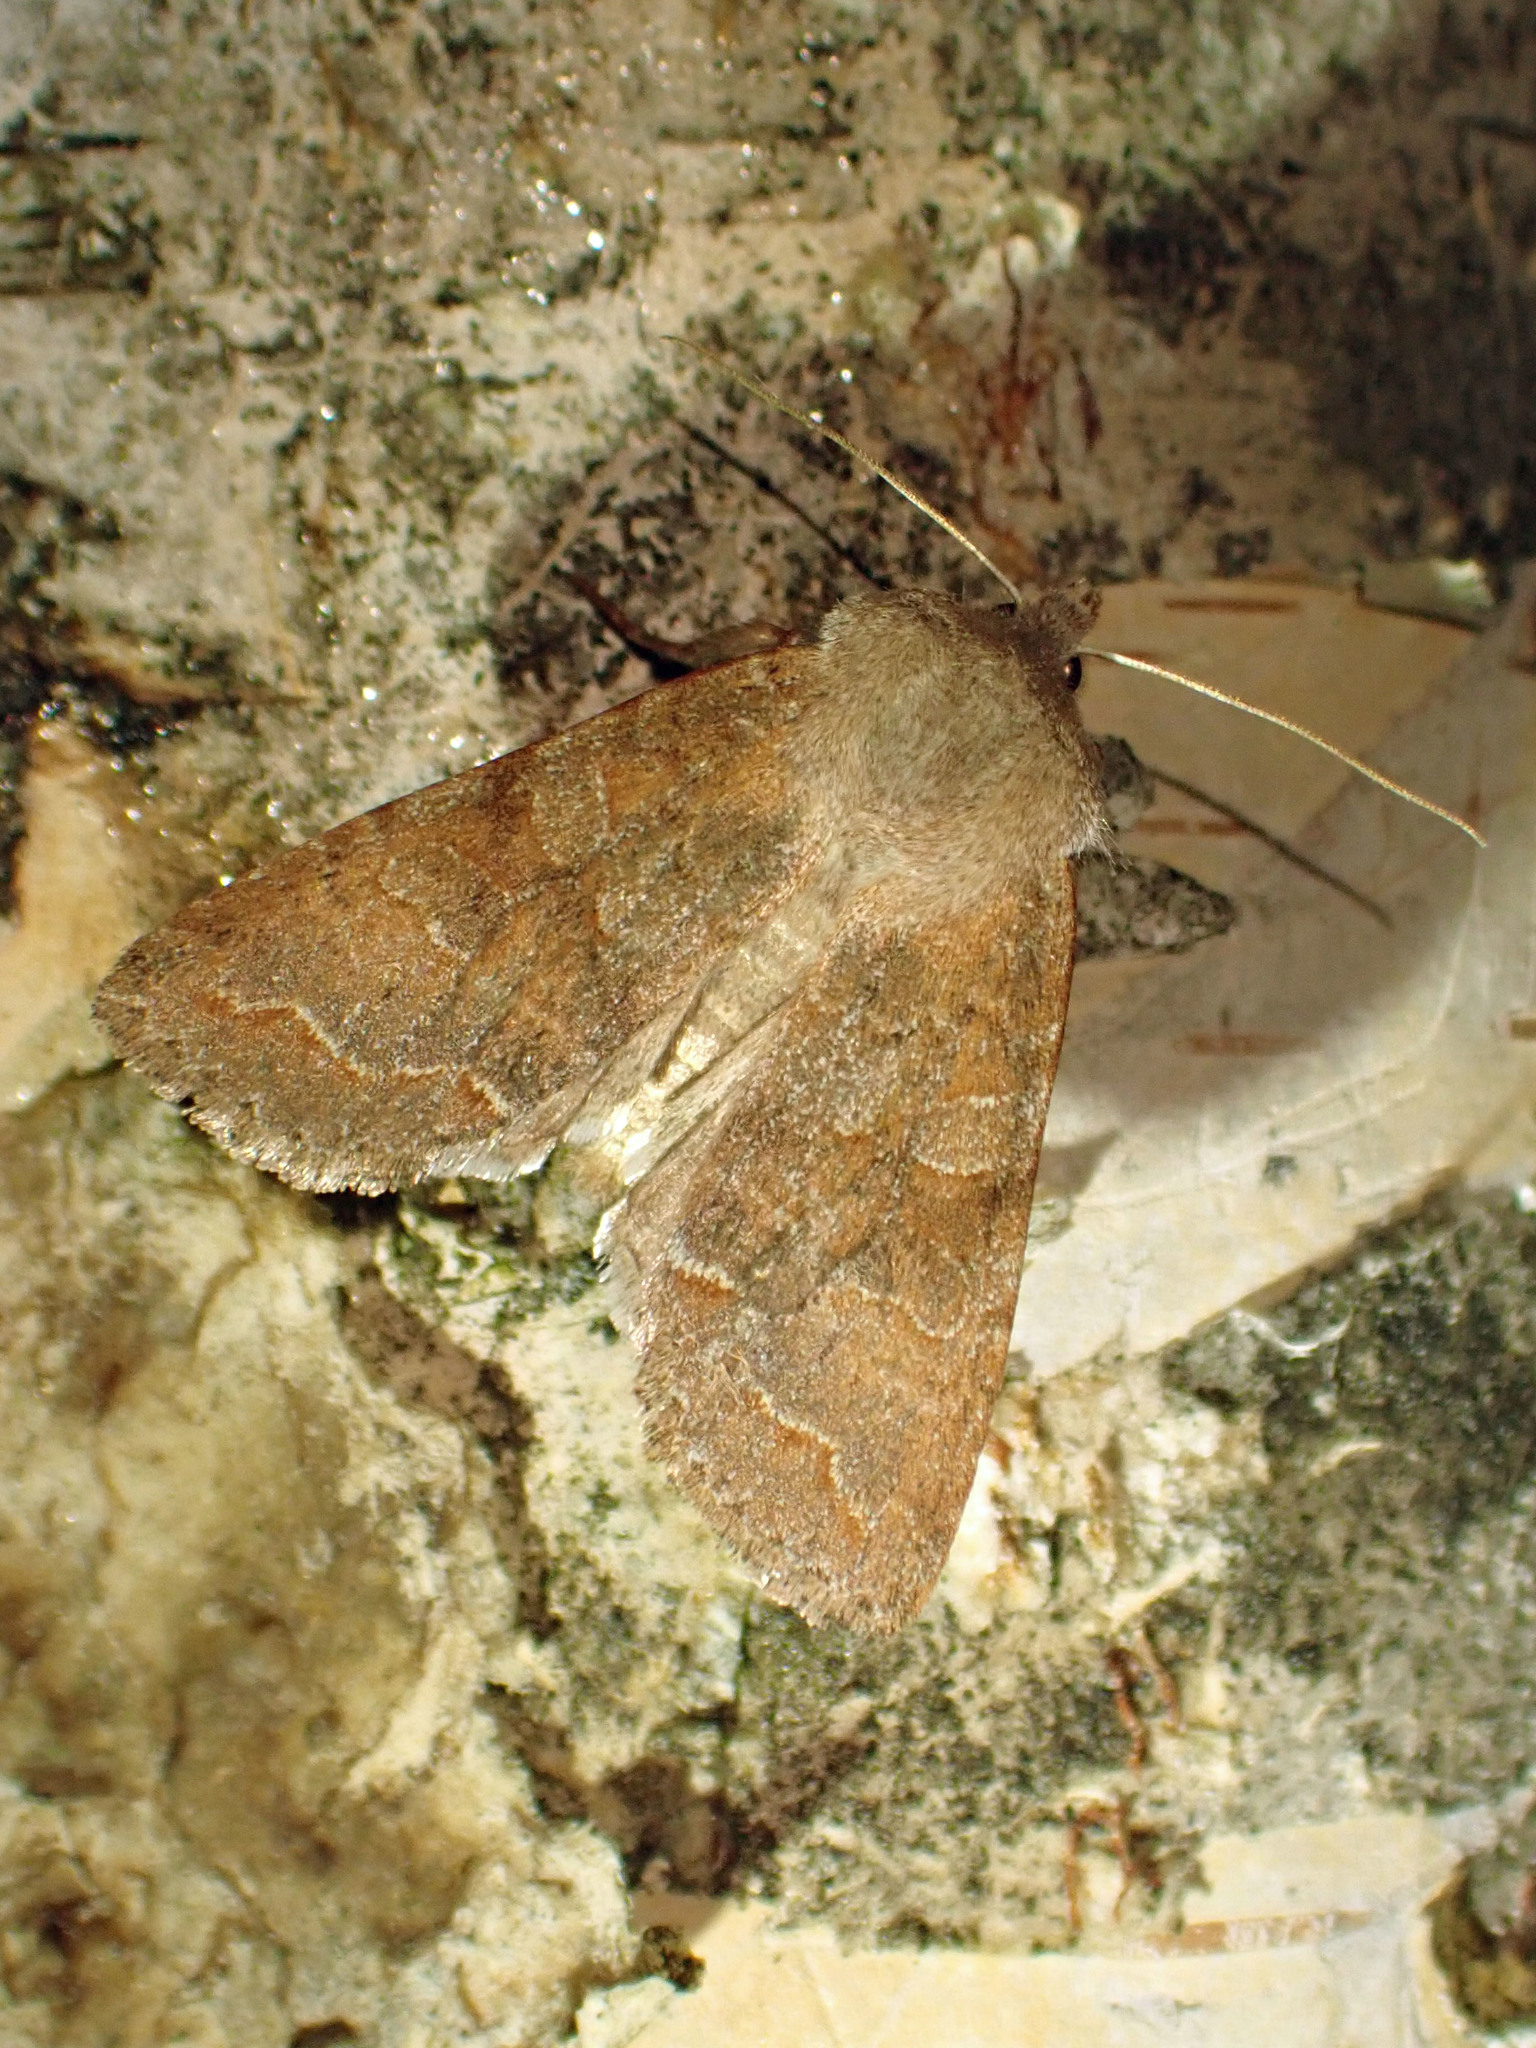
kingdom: Animalia
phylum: Arthropoda
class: Insecta
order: Lepidoptera
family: Noctuidae
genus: Orthosia
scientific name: Orthosia revicta
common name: Rusty whitesided caterpillar
